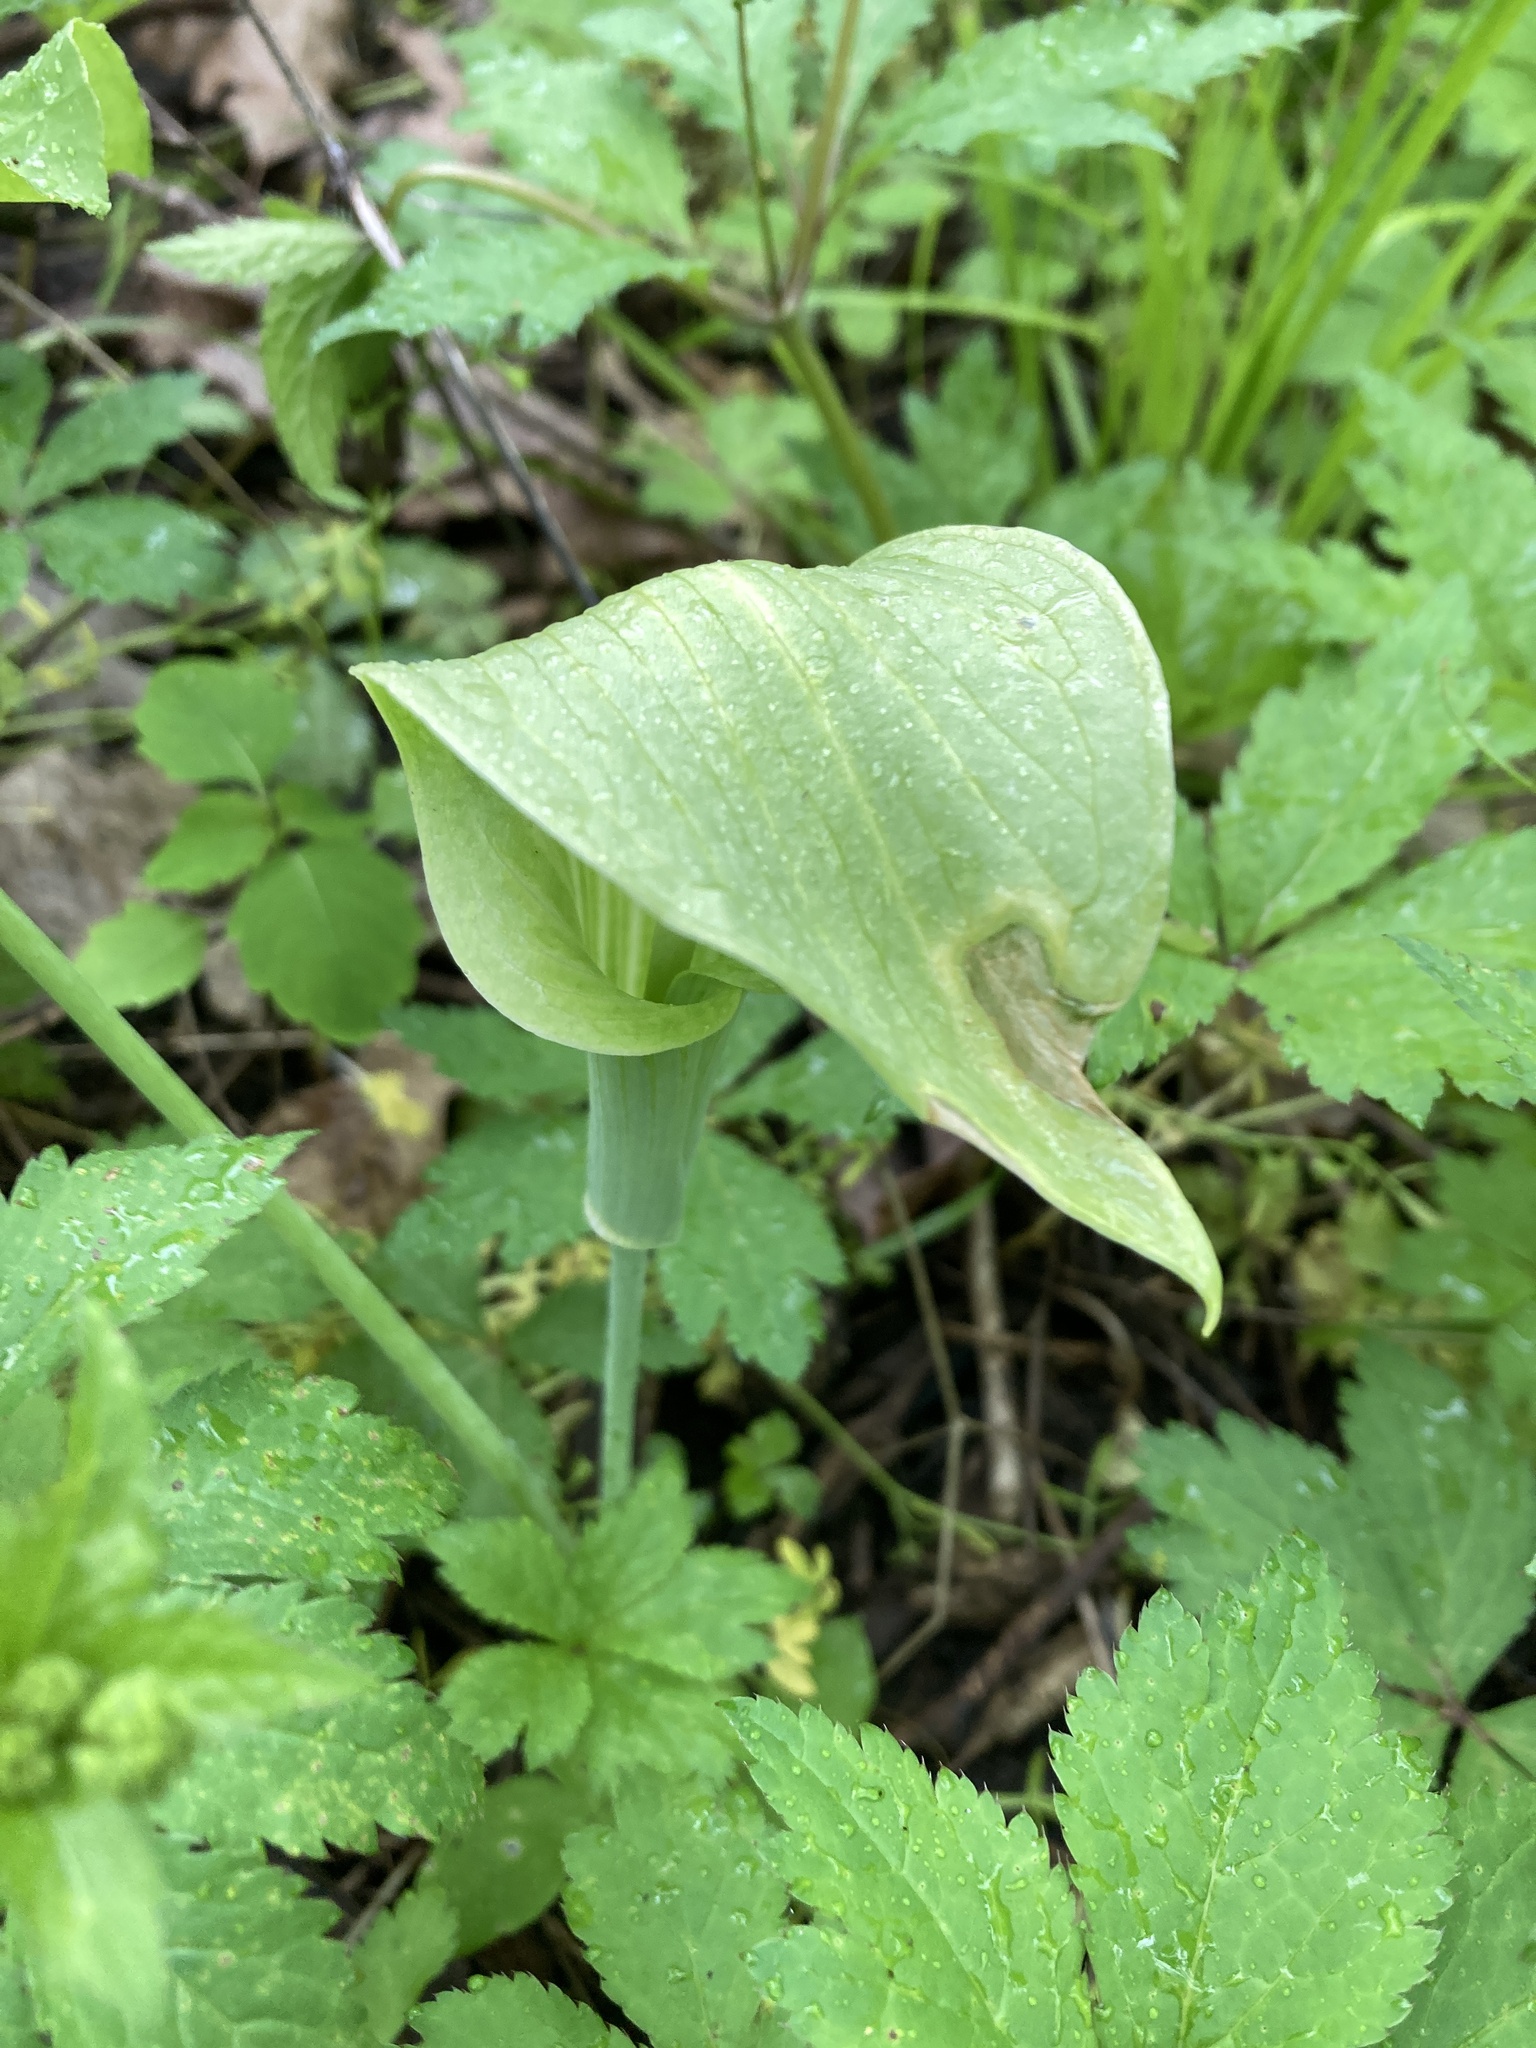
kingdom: Plantae
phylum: Tracheophyta
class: Liliopsida
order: Alismatales
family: Araceae
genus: Arisaema
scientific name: Arisaema triphyllum
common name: Jack-in-the-pulpit
